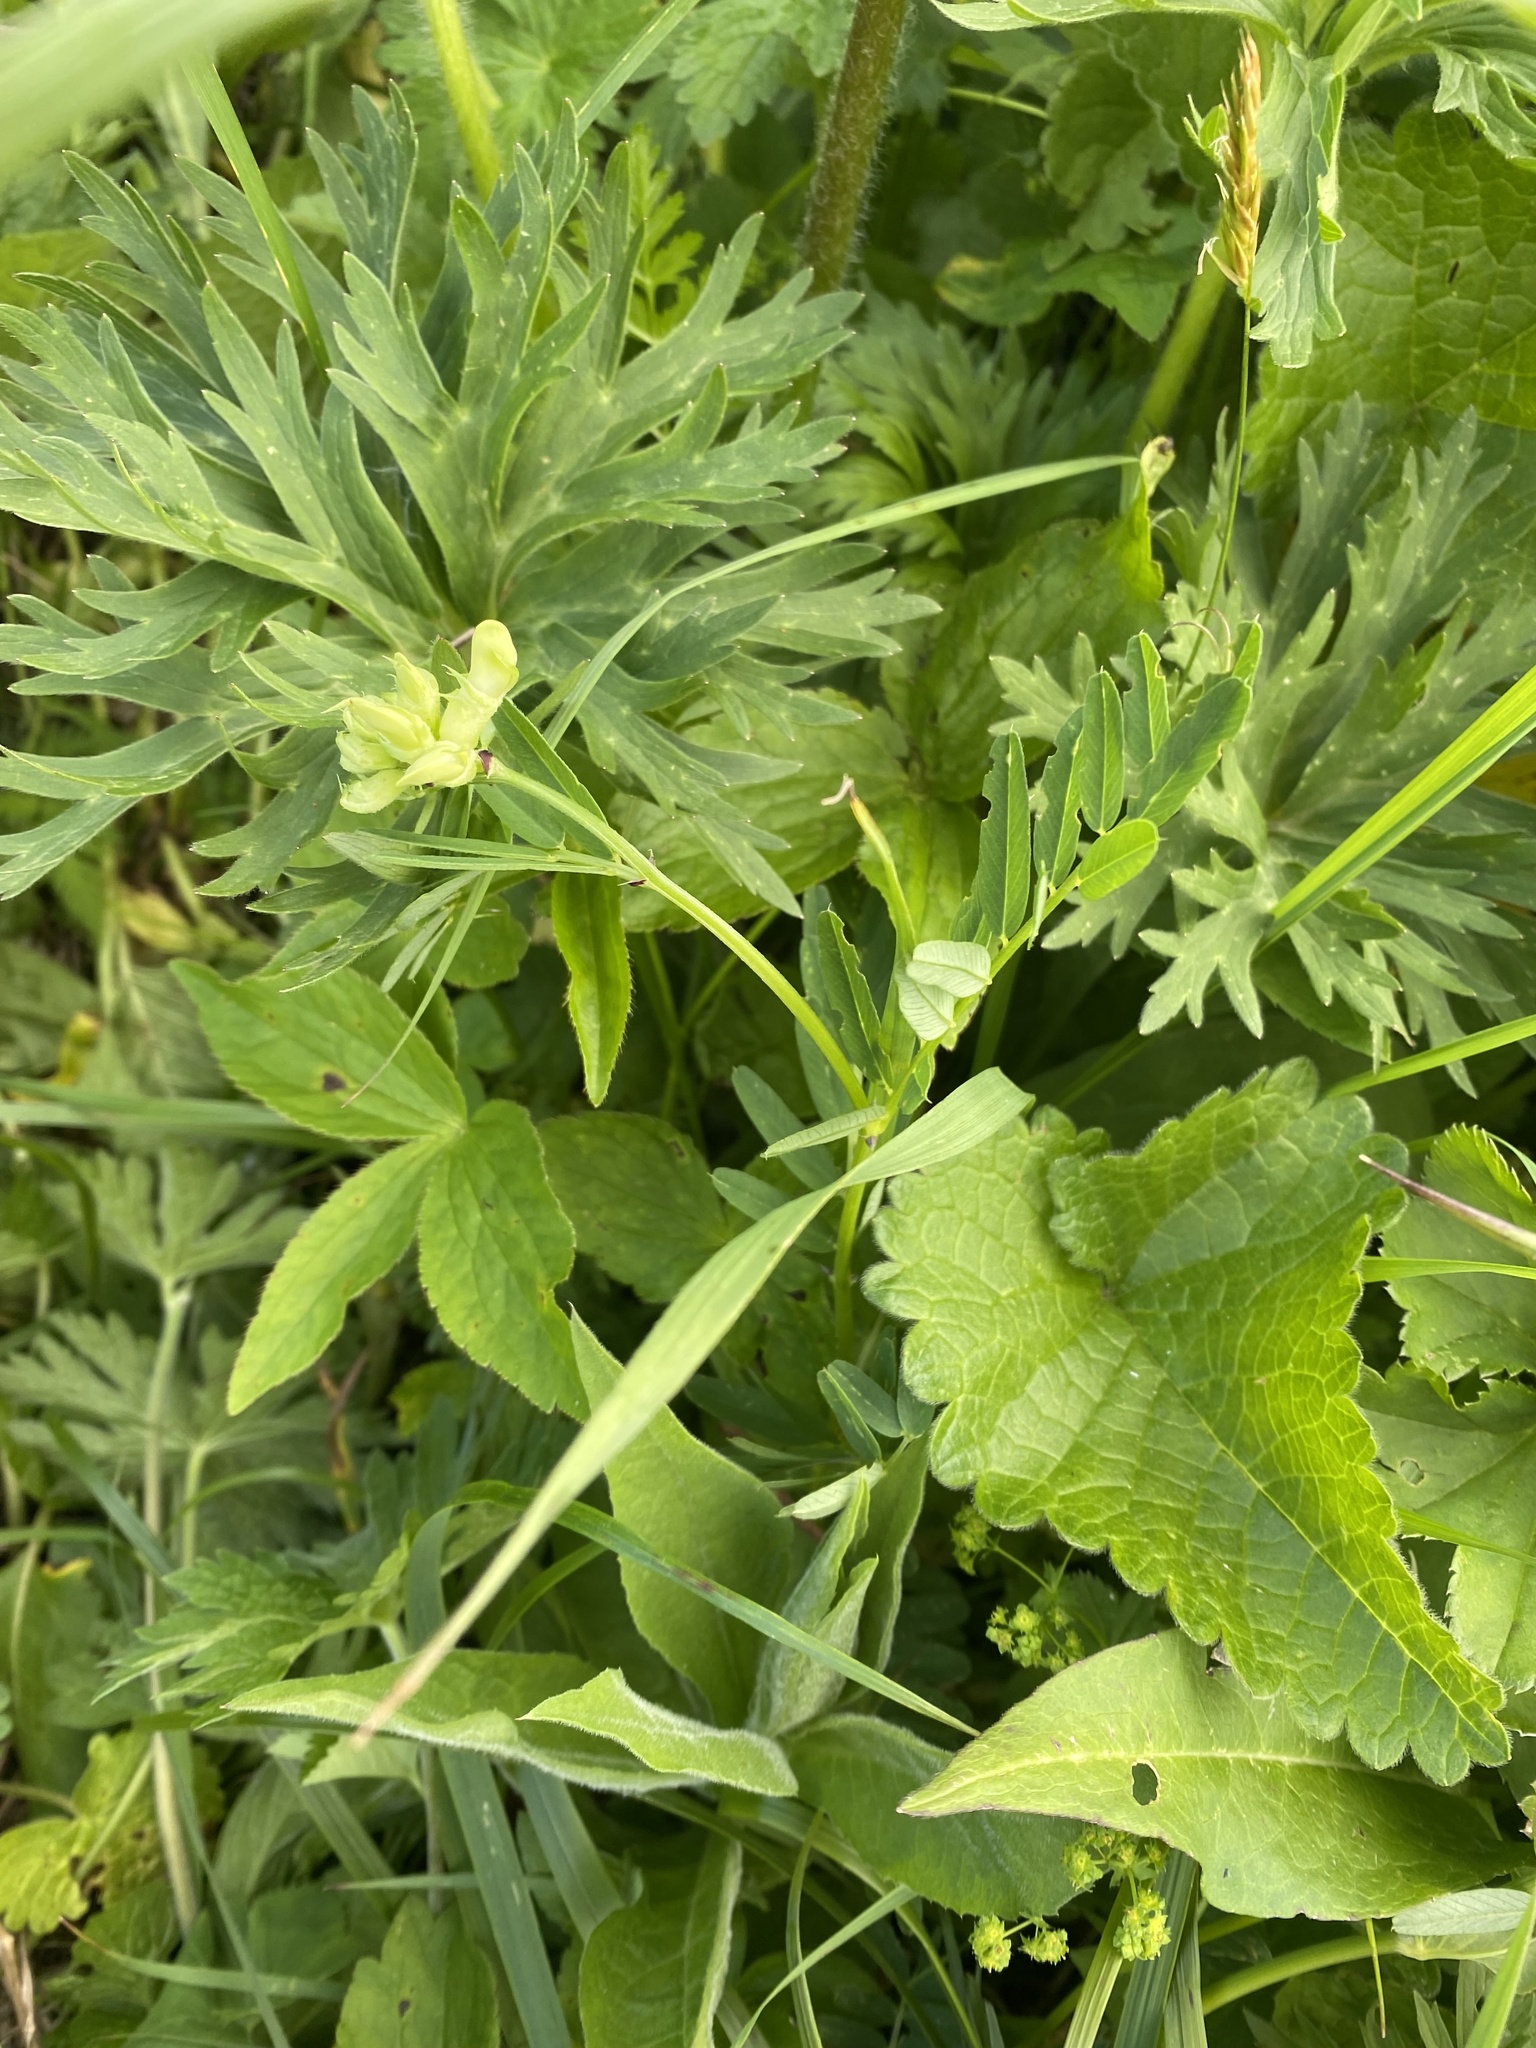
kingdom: Plantae
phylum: Tracheophyta
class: Magnoliopsida
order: Fabales
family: Fabaceae
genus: Vicia
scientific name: Vicia balansae
